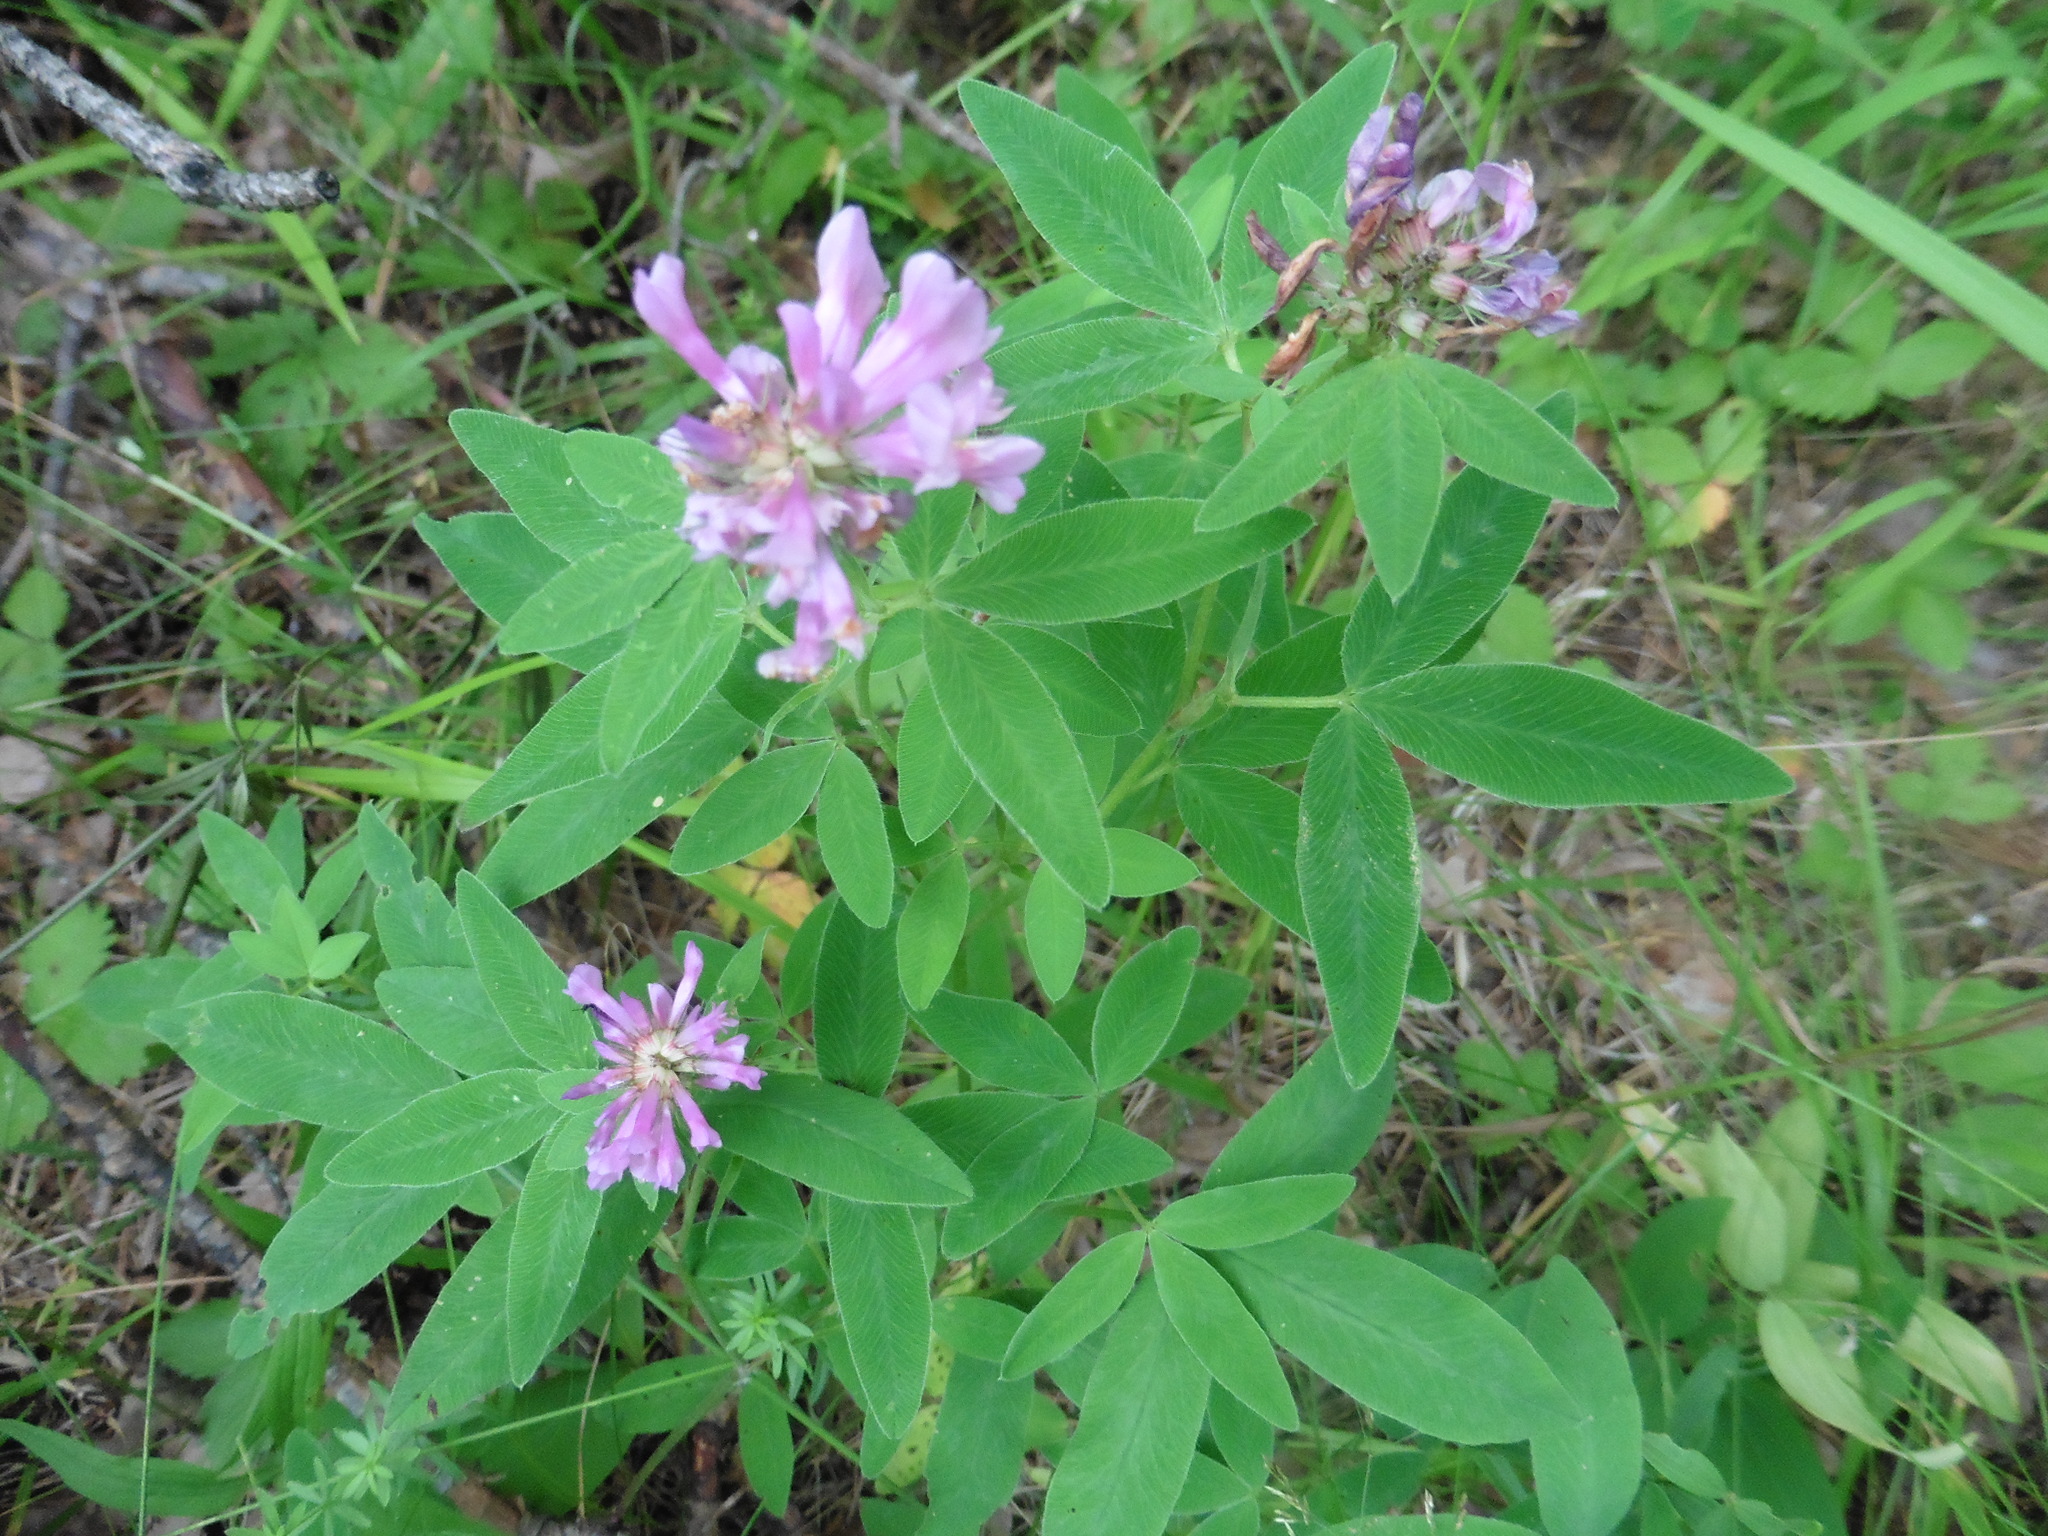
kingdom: Plantae
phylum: Tracheophyta
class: Magnoliopsida
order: Fabales
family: Fabaceae
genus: Trifolium
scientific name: Trifolium medium
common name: Zigzag clover
